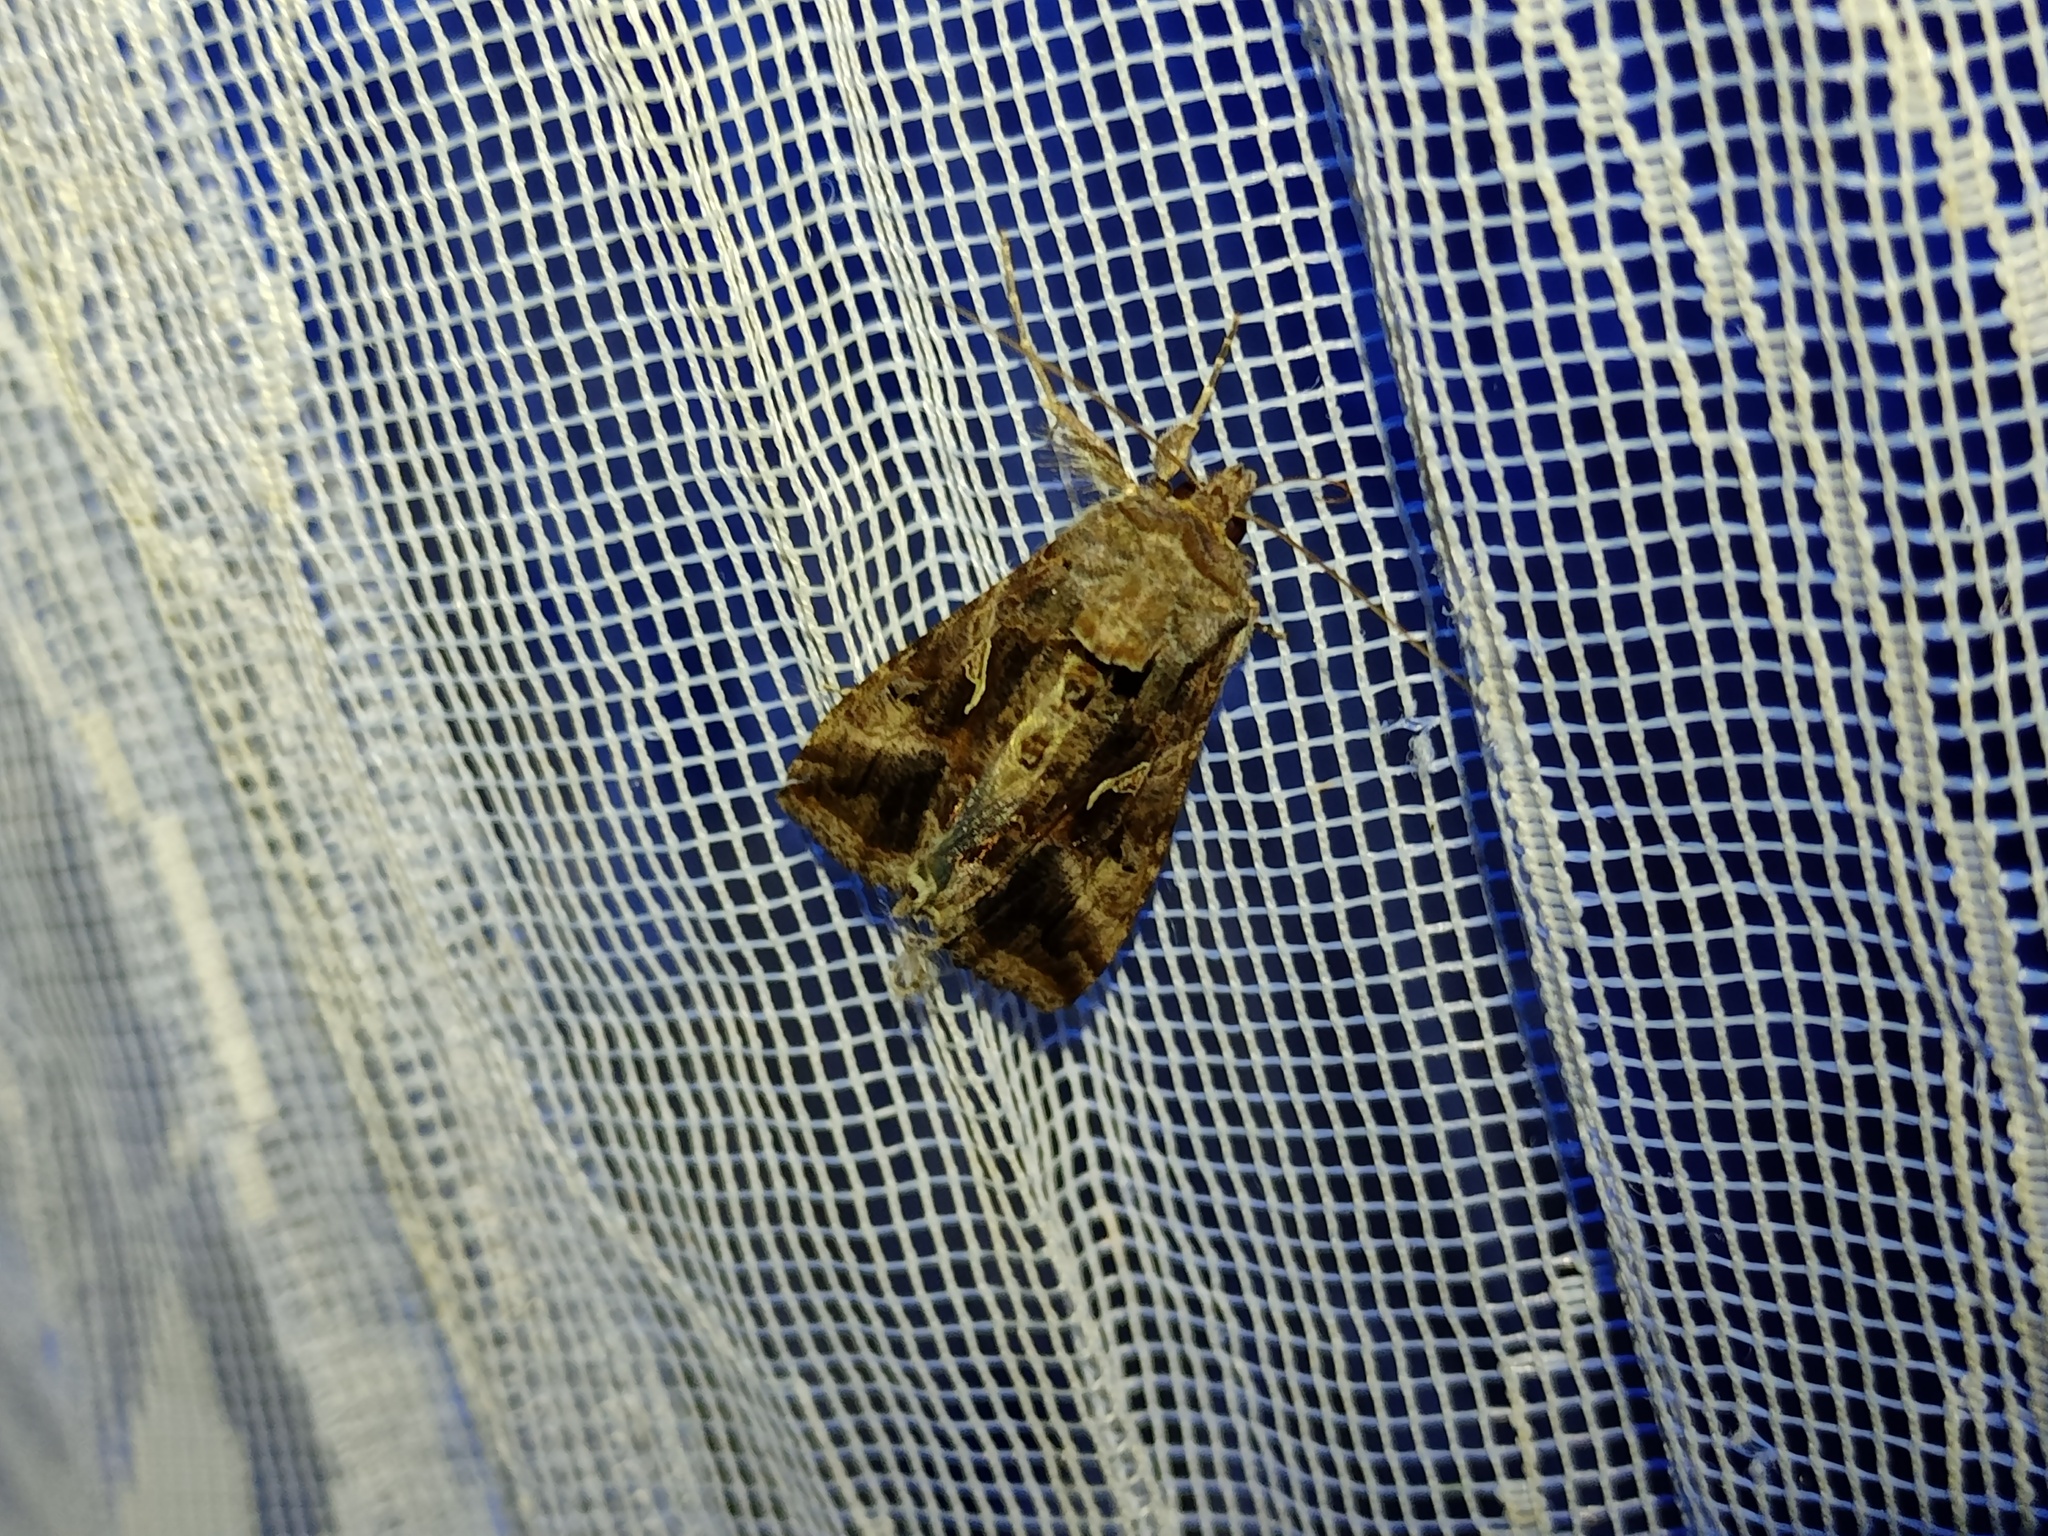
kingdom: Animalia
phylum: Arthropoda
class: Insecta
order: Lepidoptera
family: Noctuidae
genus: Autographa
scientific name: Autographa gamma
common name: Silver y
